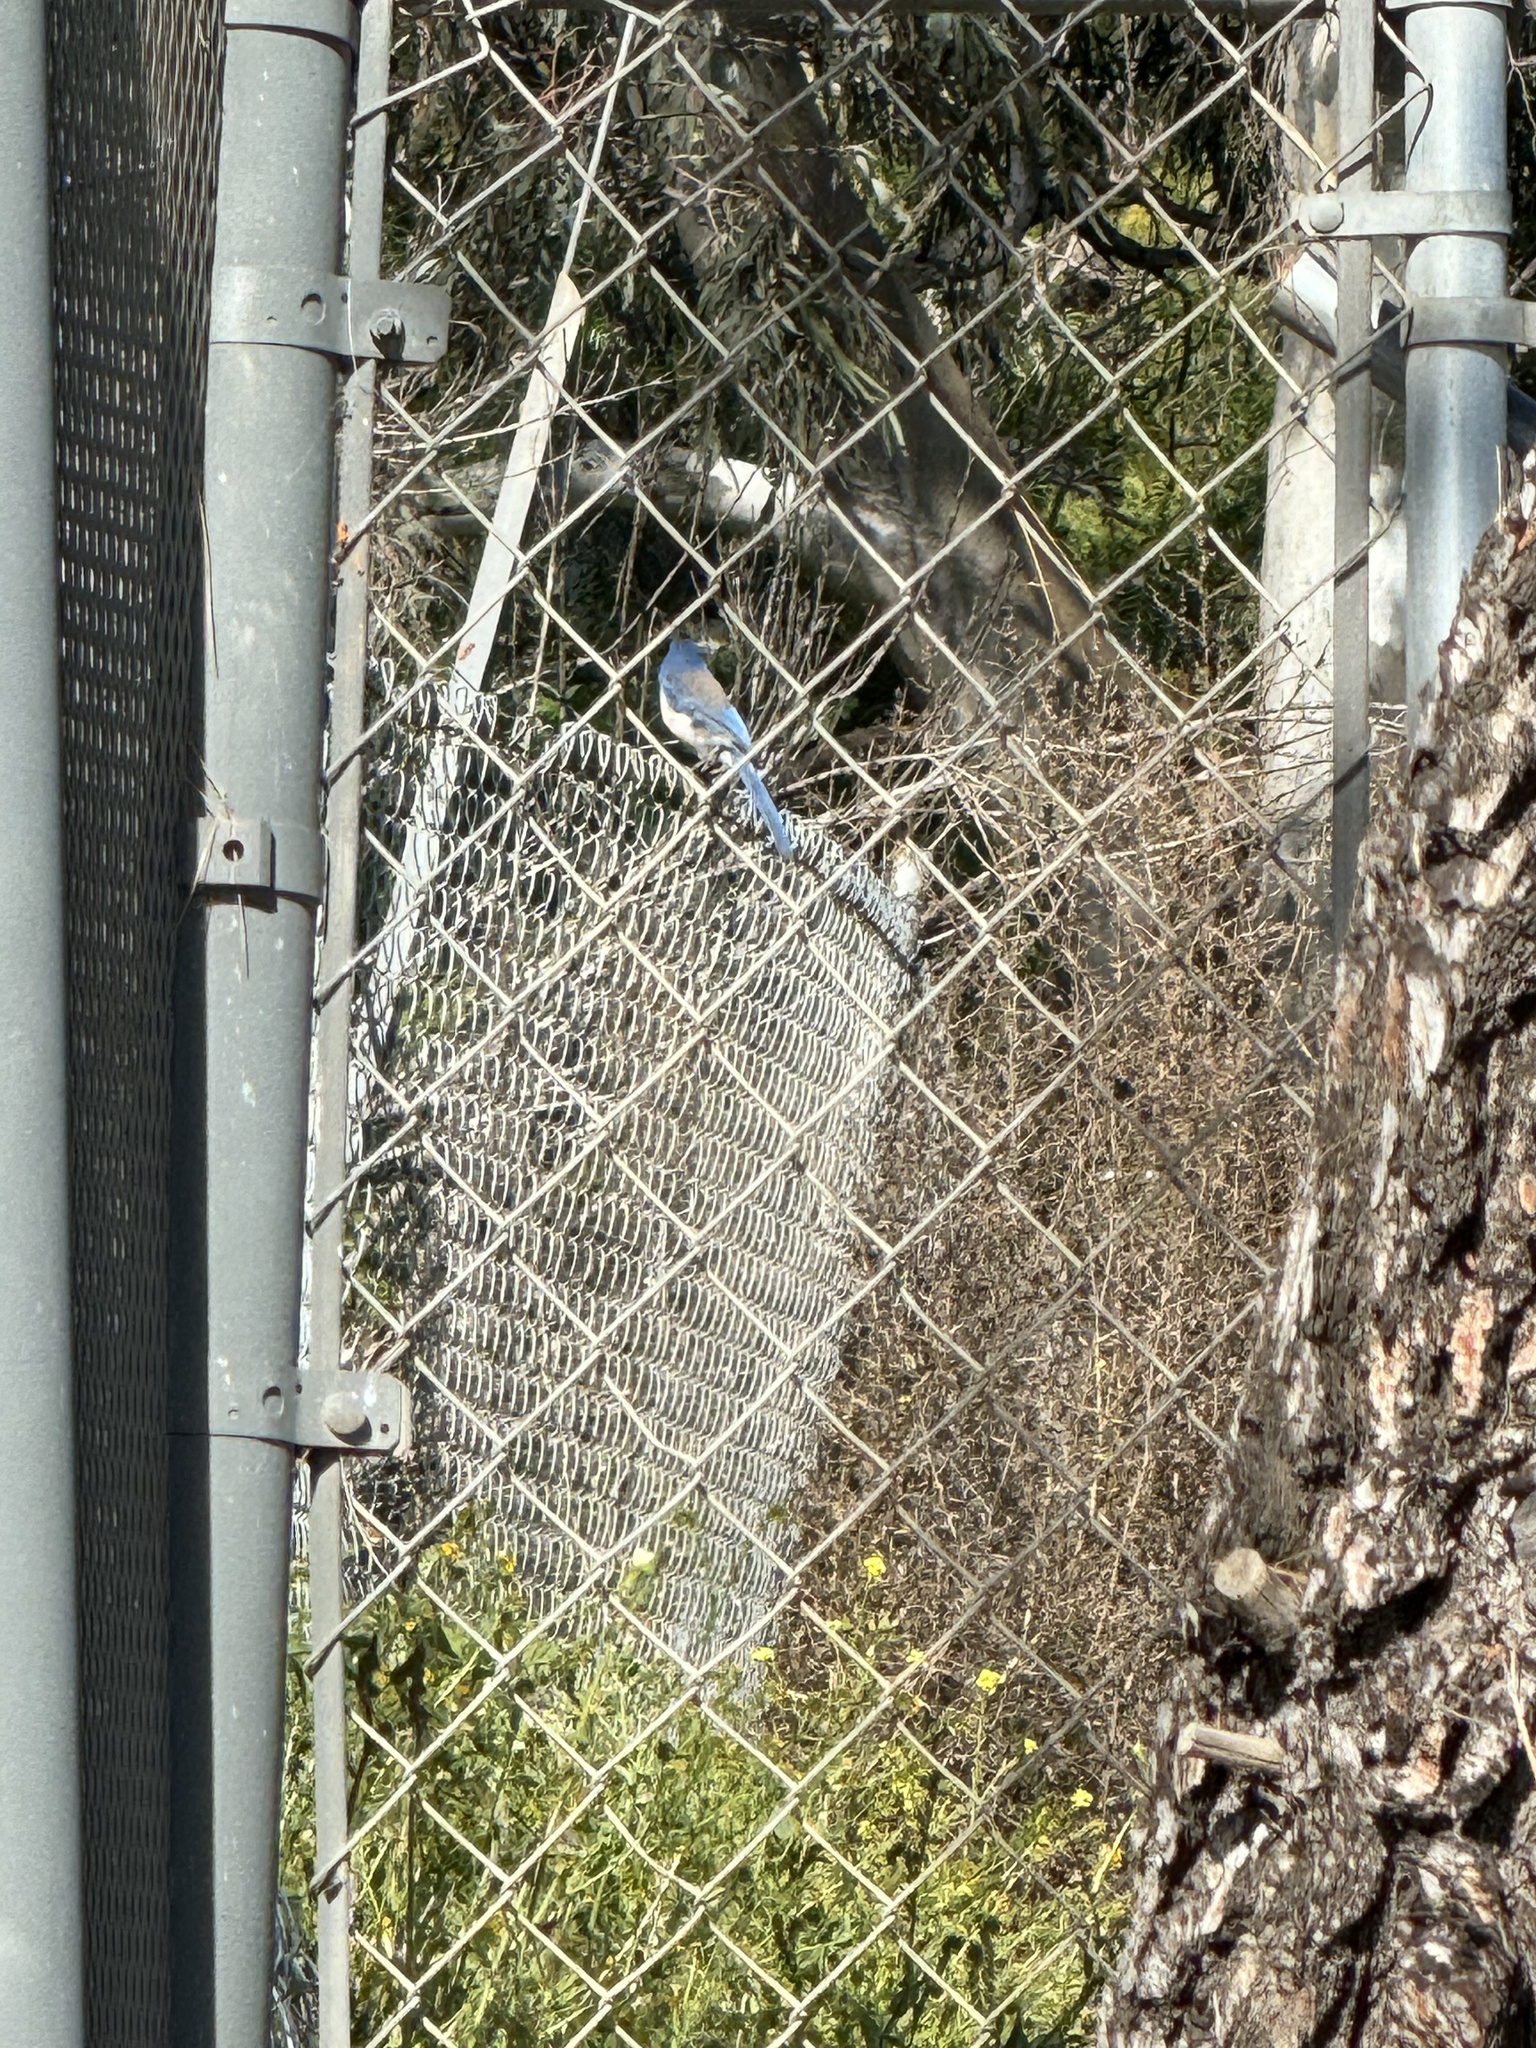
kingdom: Animalia
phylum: Chordata
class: Aves
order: Passeriformes
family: Corvidae
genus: Aphelocoma
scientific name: Aphelocoma californica
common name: California scrub-jay
